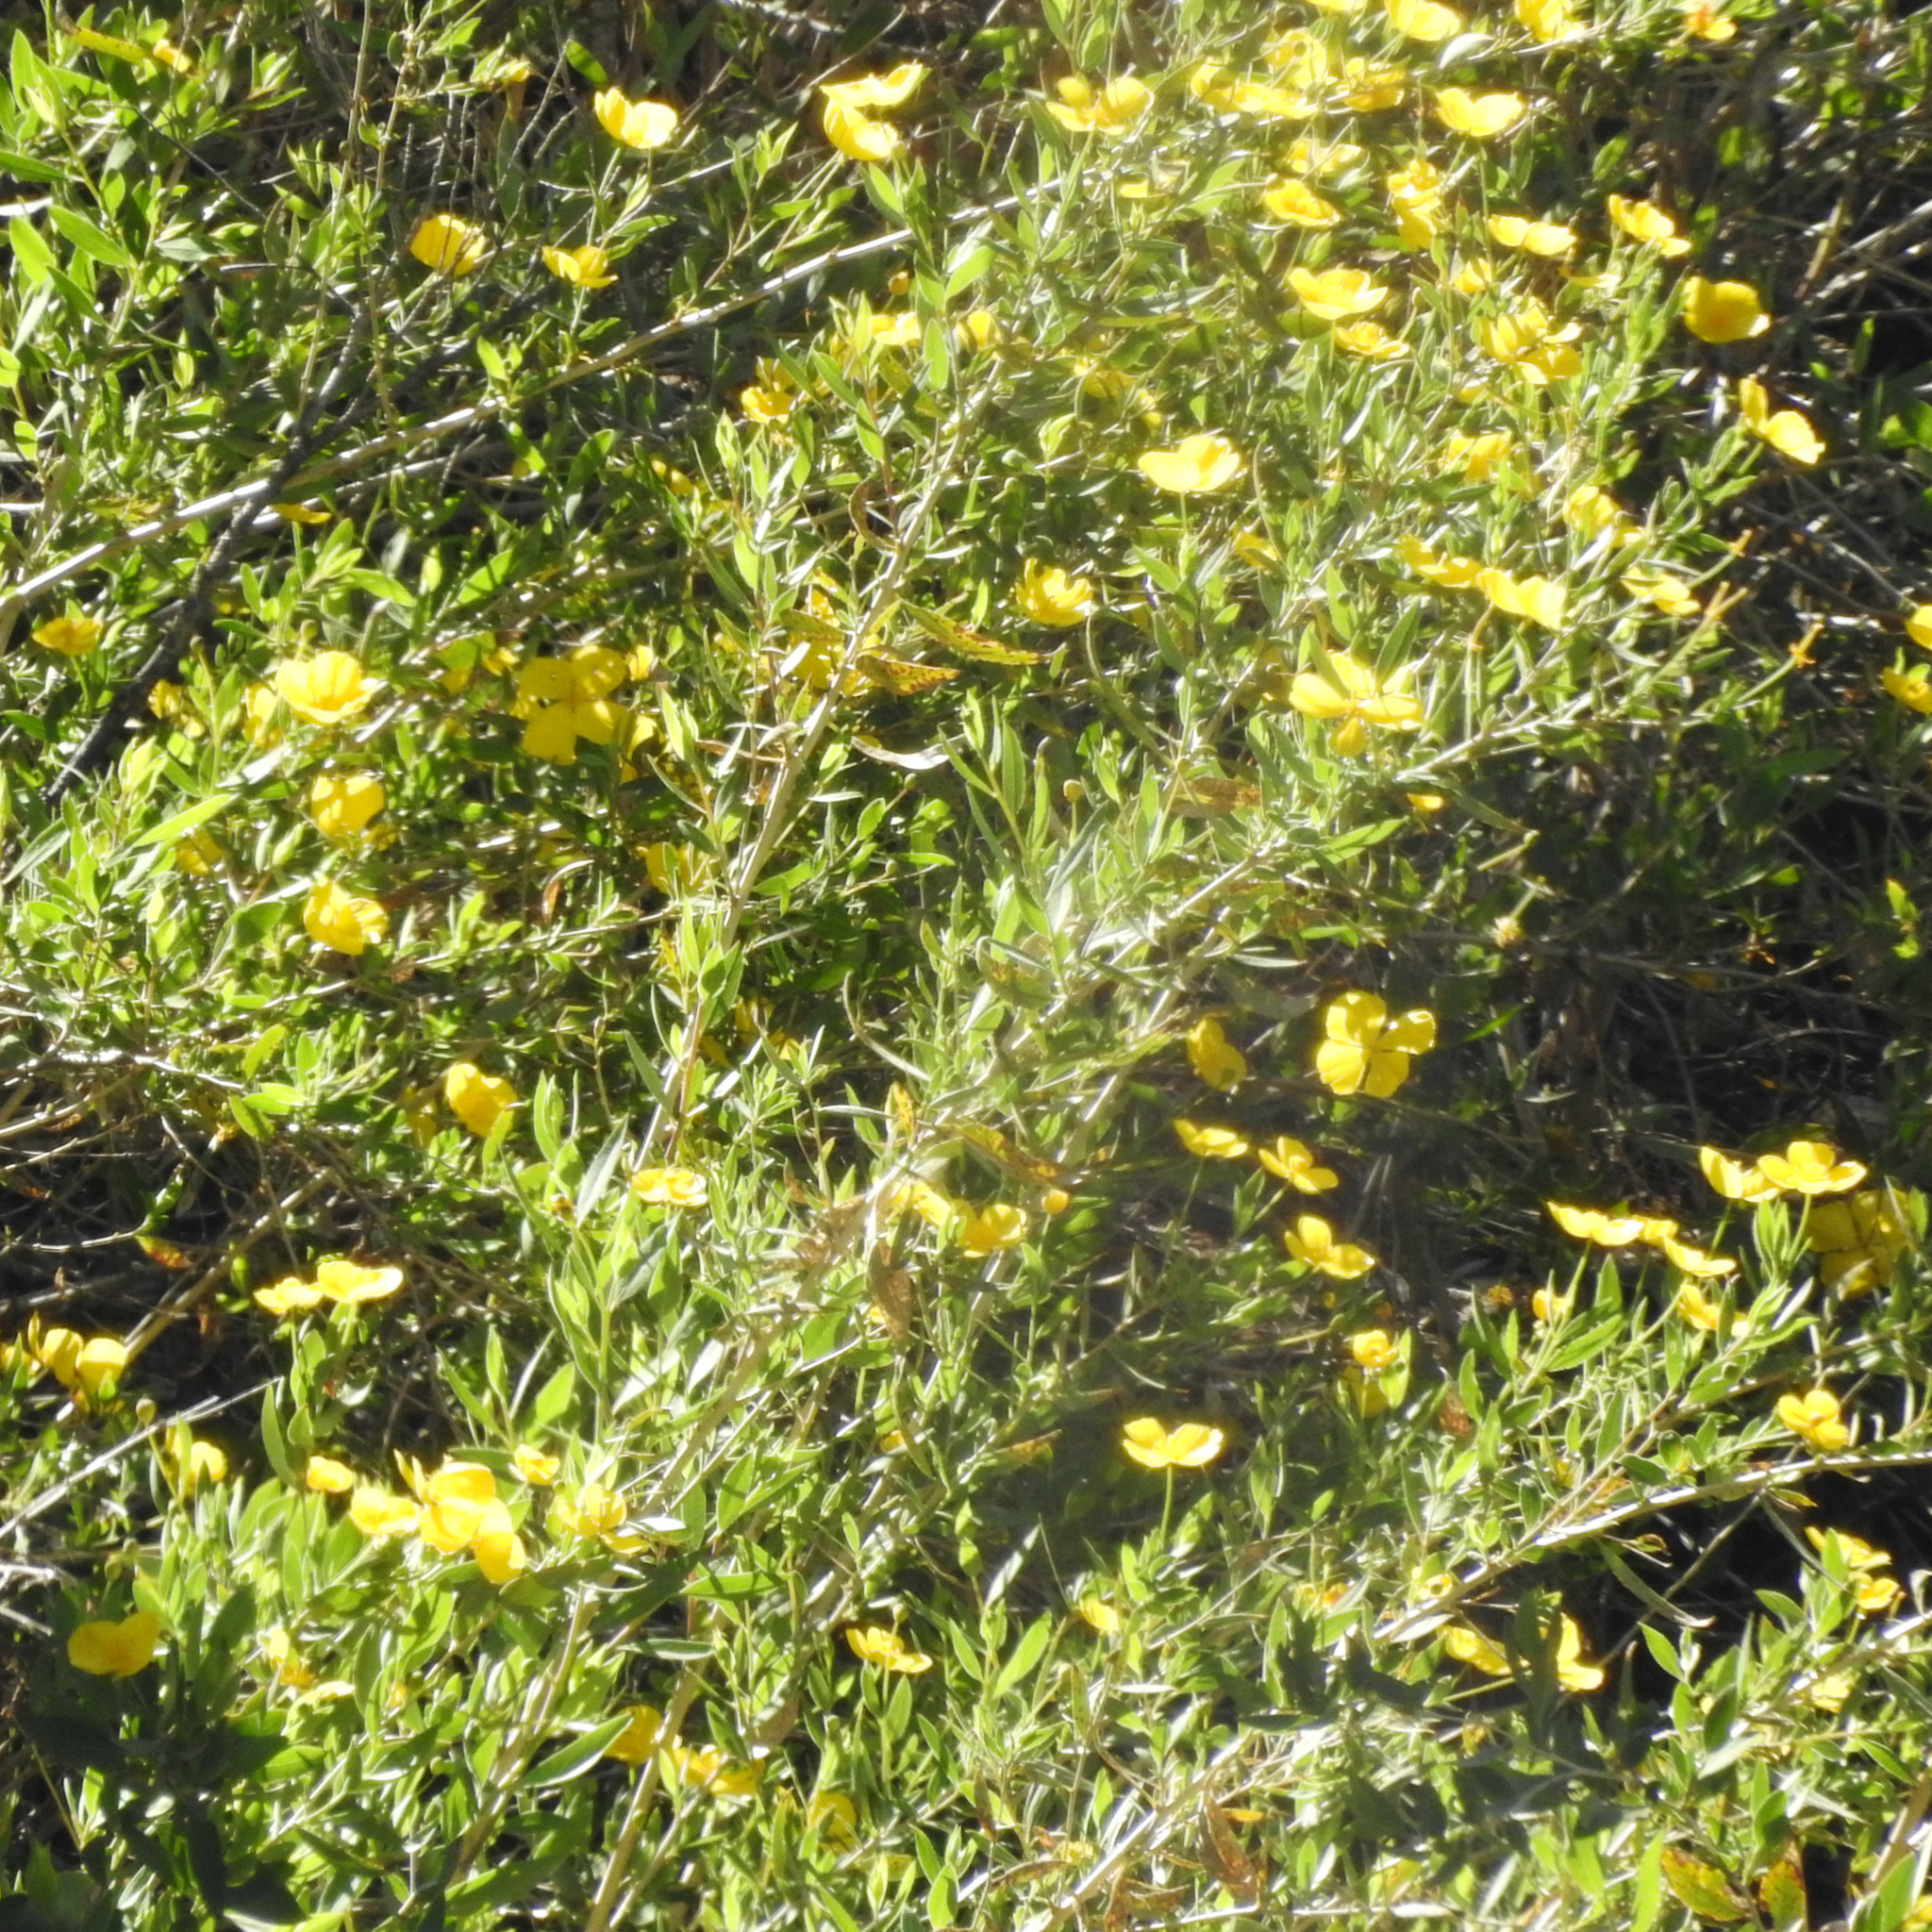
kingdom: Plantae
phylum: Tracheophyta
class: Magnoliopsida
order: Ranunculales
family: Papaveraceae
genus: Dendromecon
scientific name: Dendromecon rigida
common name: Tree poppy
